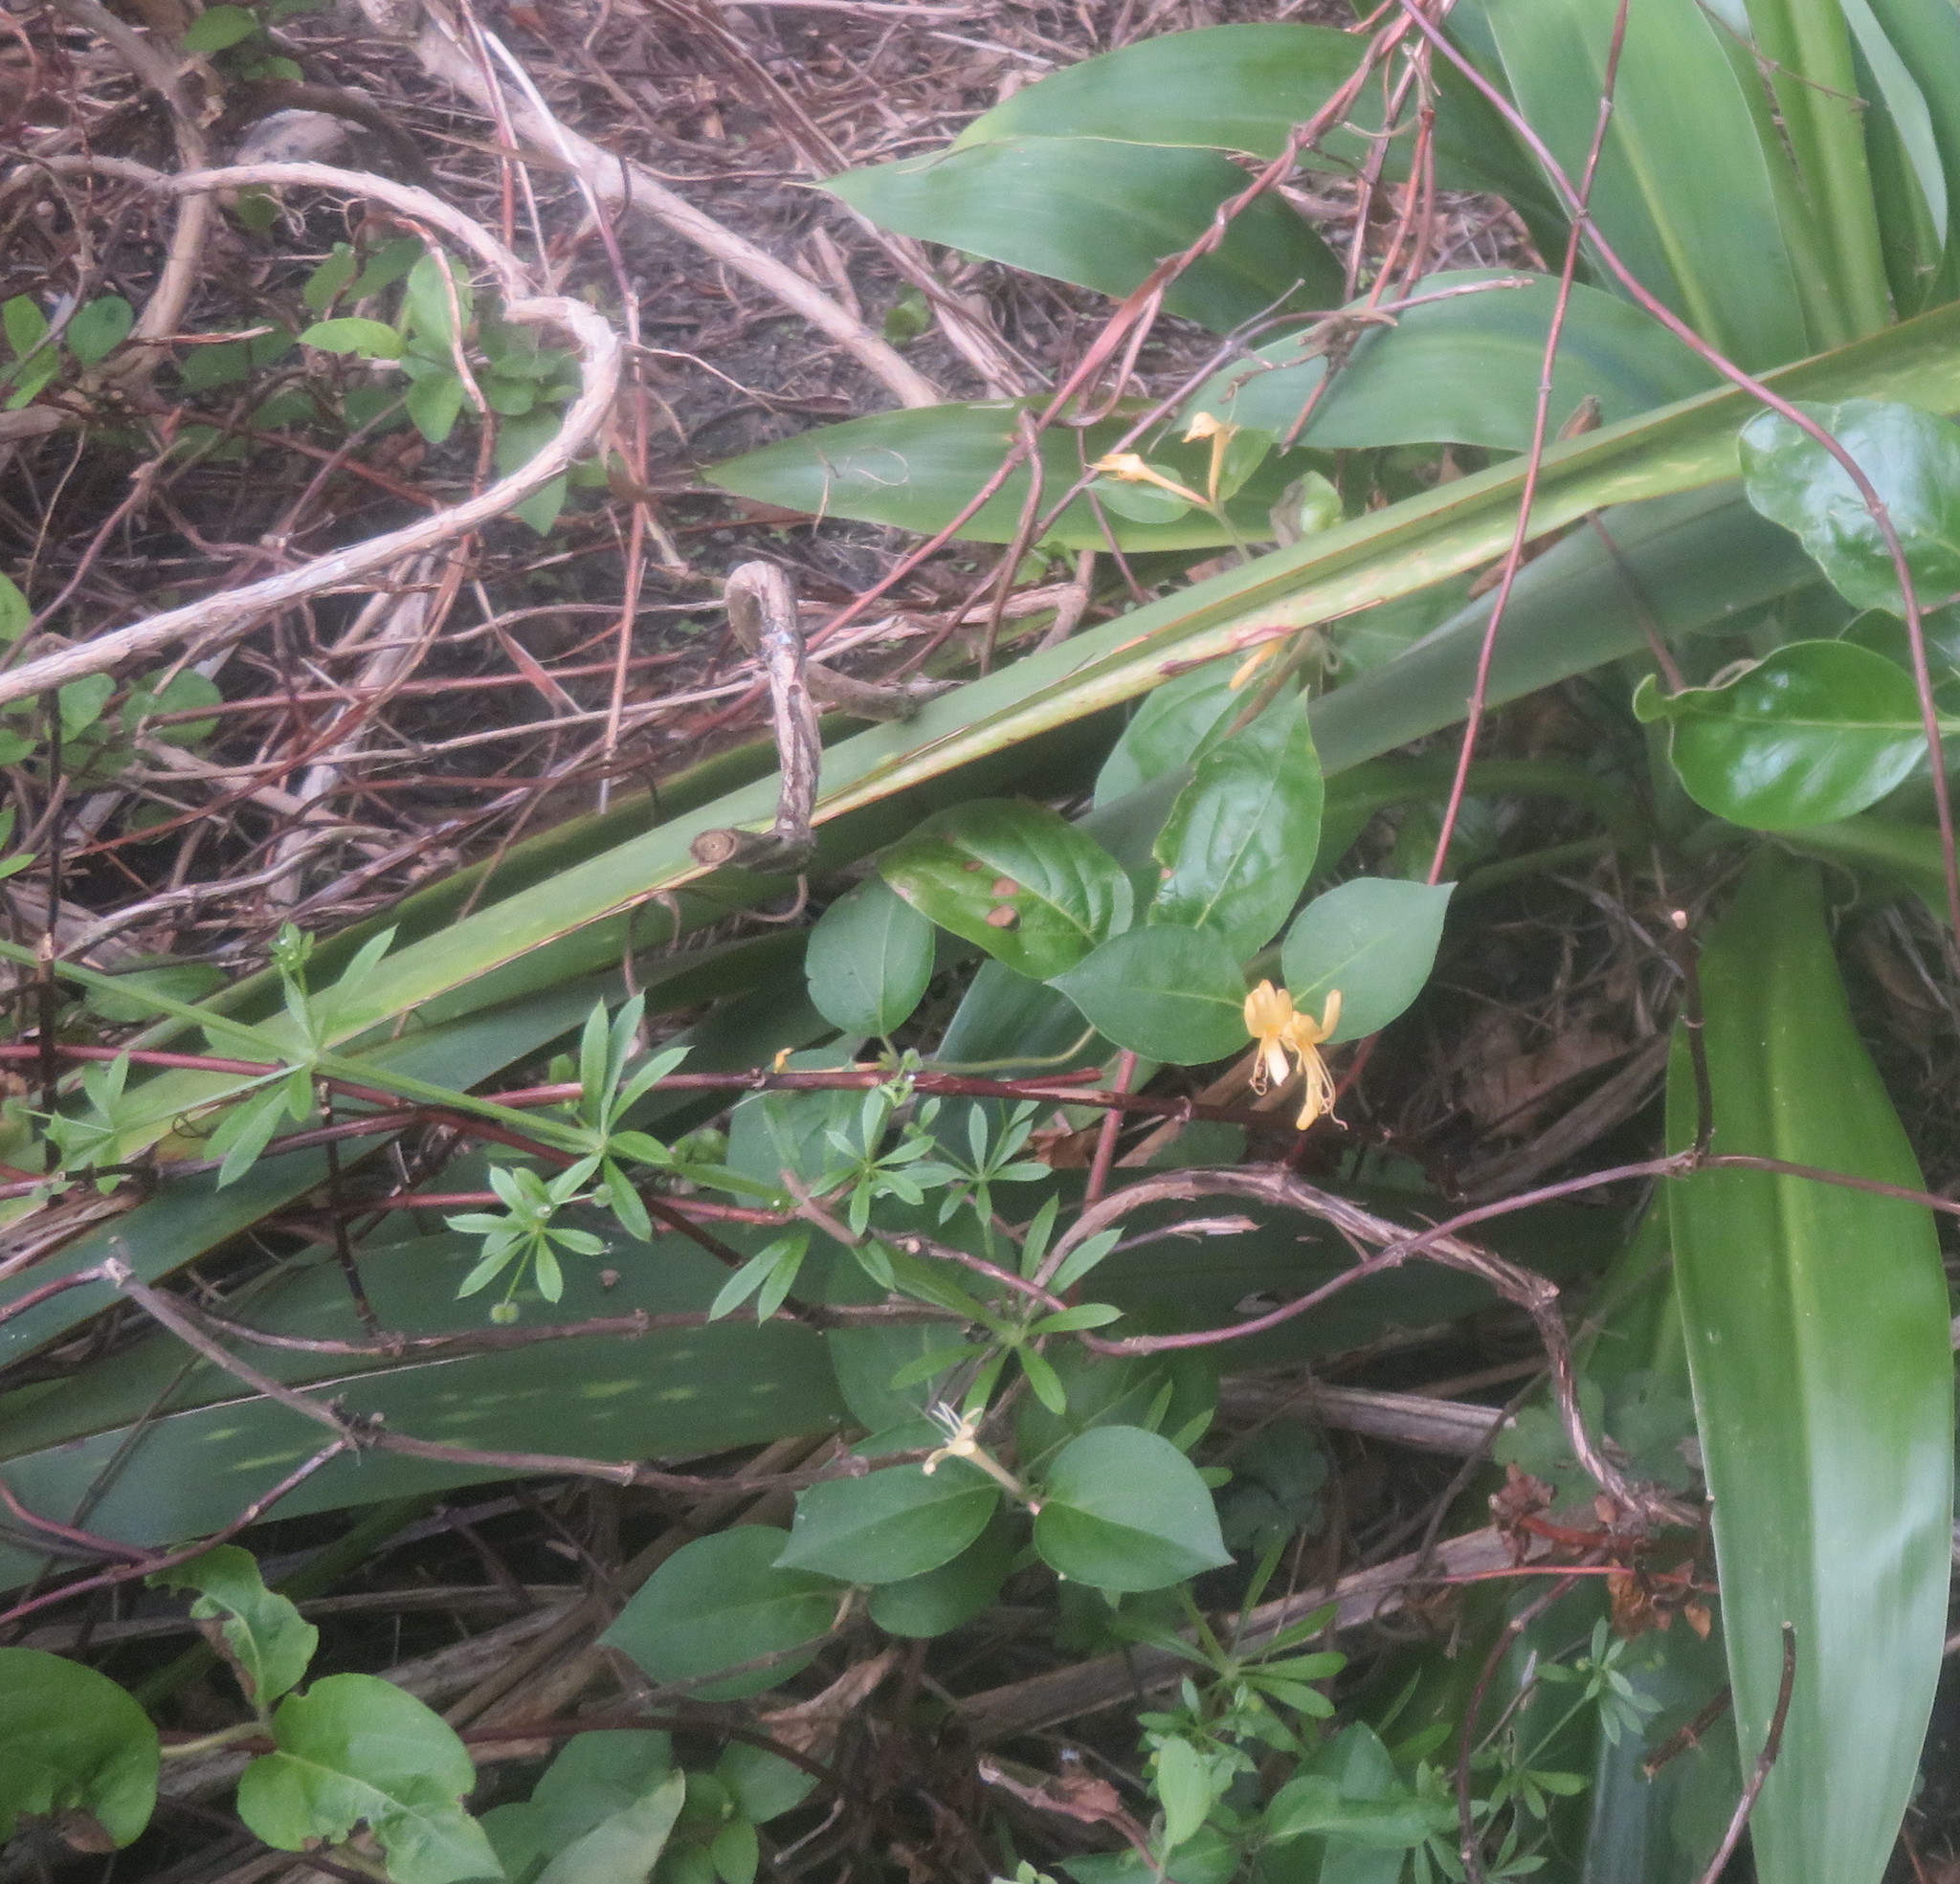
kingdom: Plantae
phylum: Tracheophyta
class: Magnoliopsida
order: Gentianales
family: Rubiaceae
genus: Galium
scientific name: Galium aparine
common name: Cleavers
